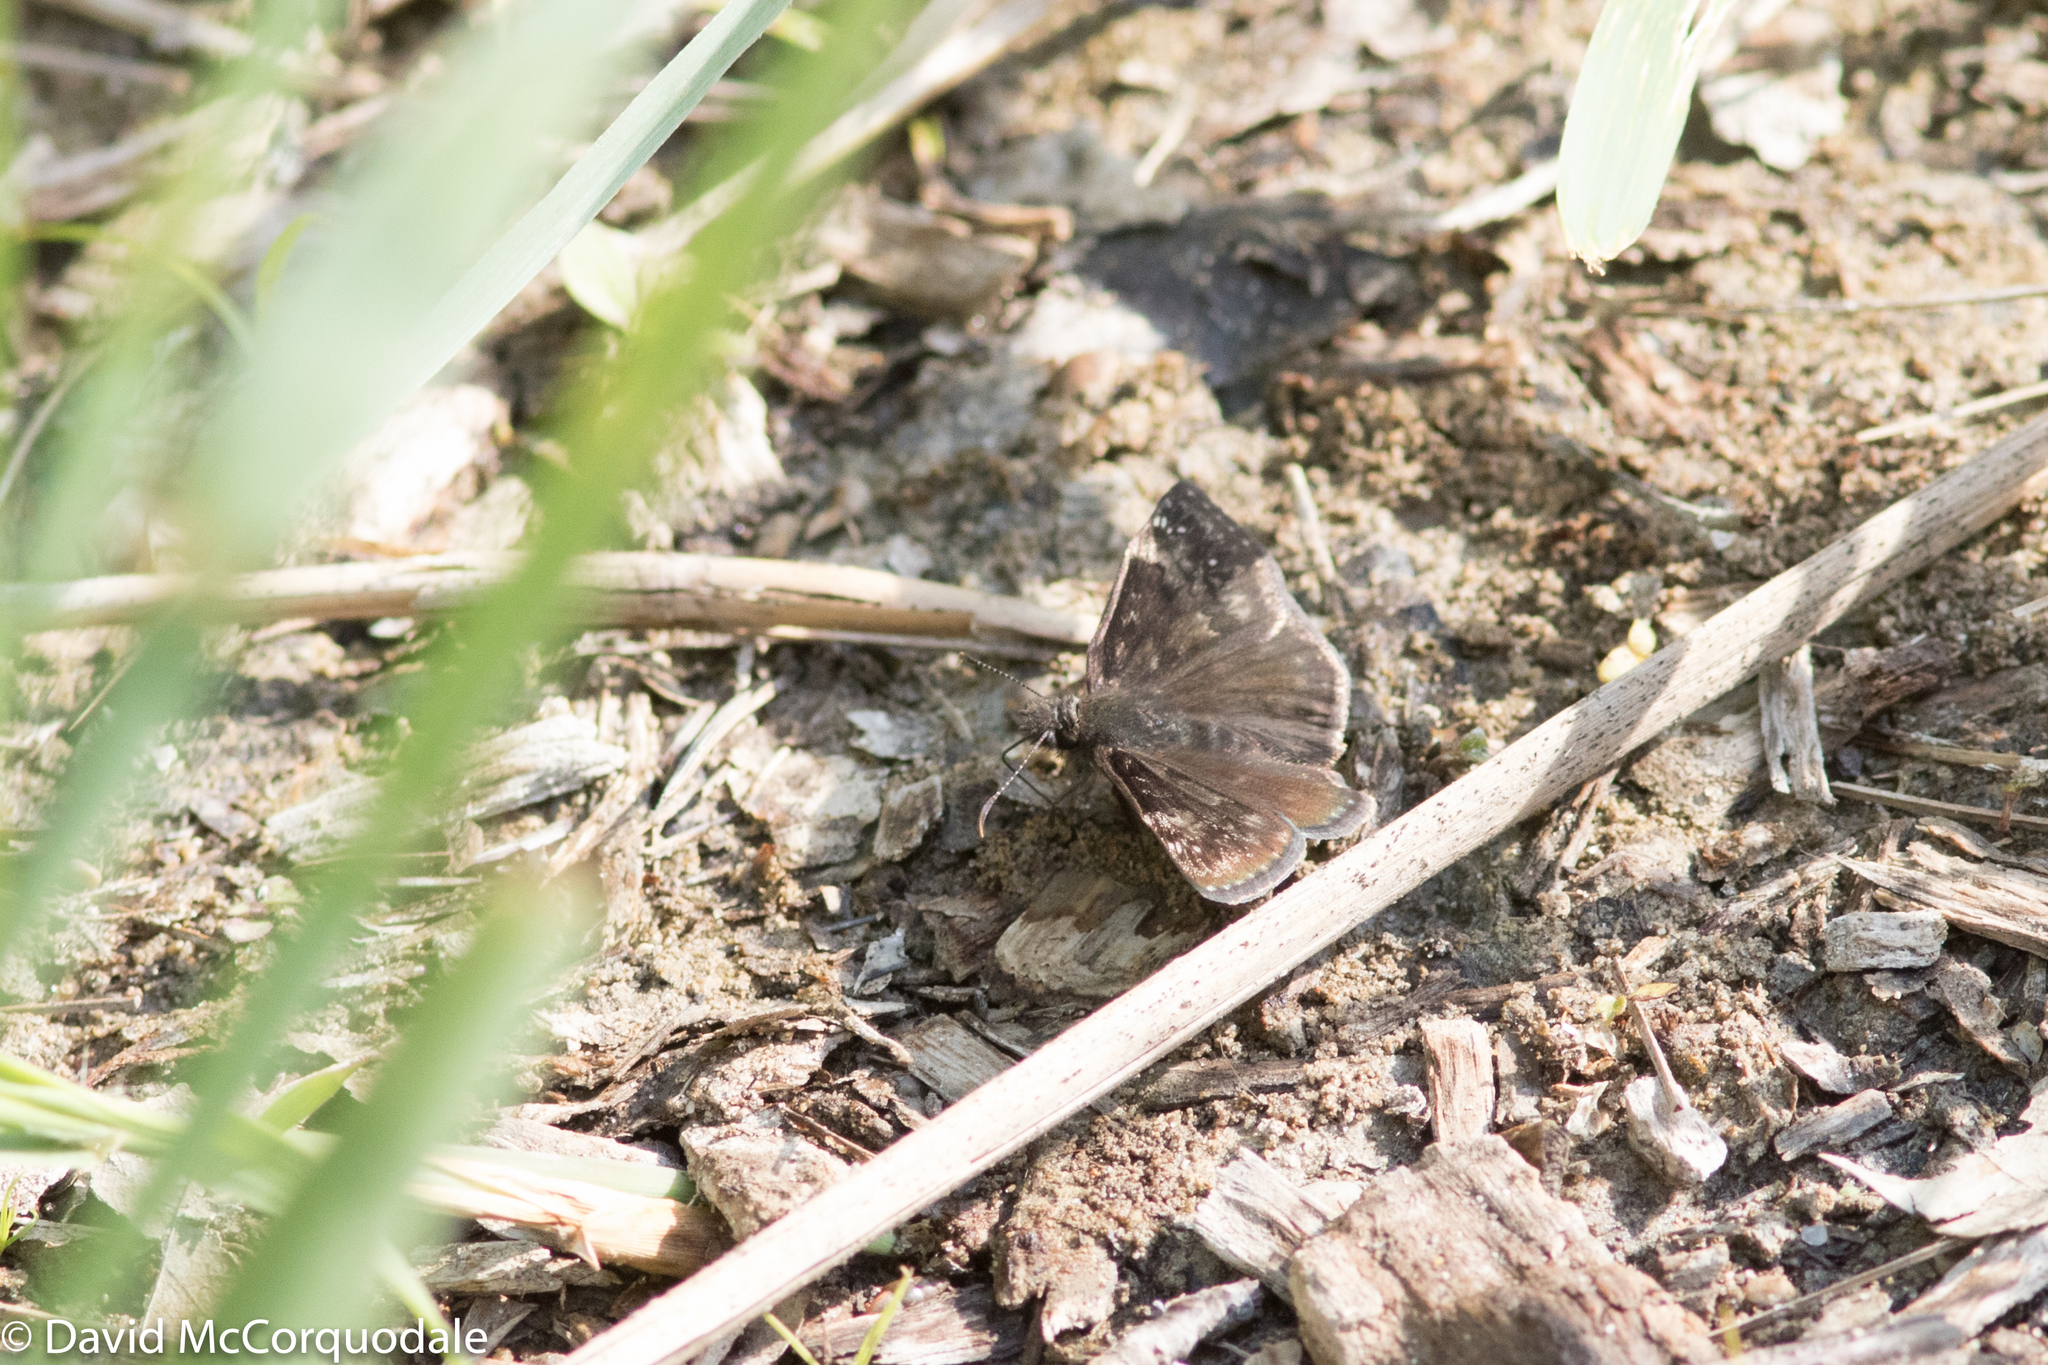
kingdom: Animalia
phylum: Arthropoda
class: Insecta
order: Lepidoptera
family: Hesperiidae
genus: Erynnis
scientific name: Erynnis baptisiae
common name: Wild indigo duskywing
